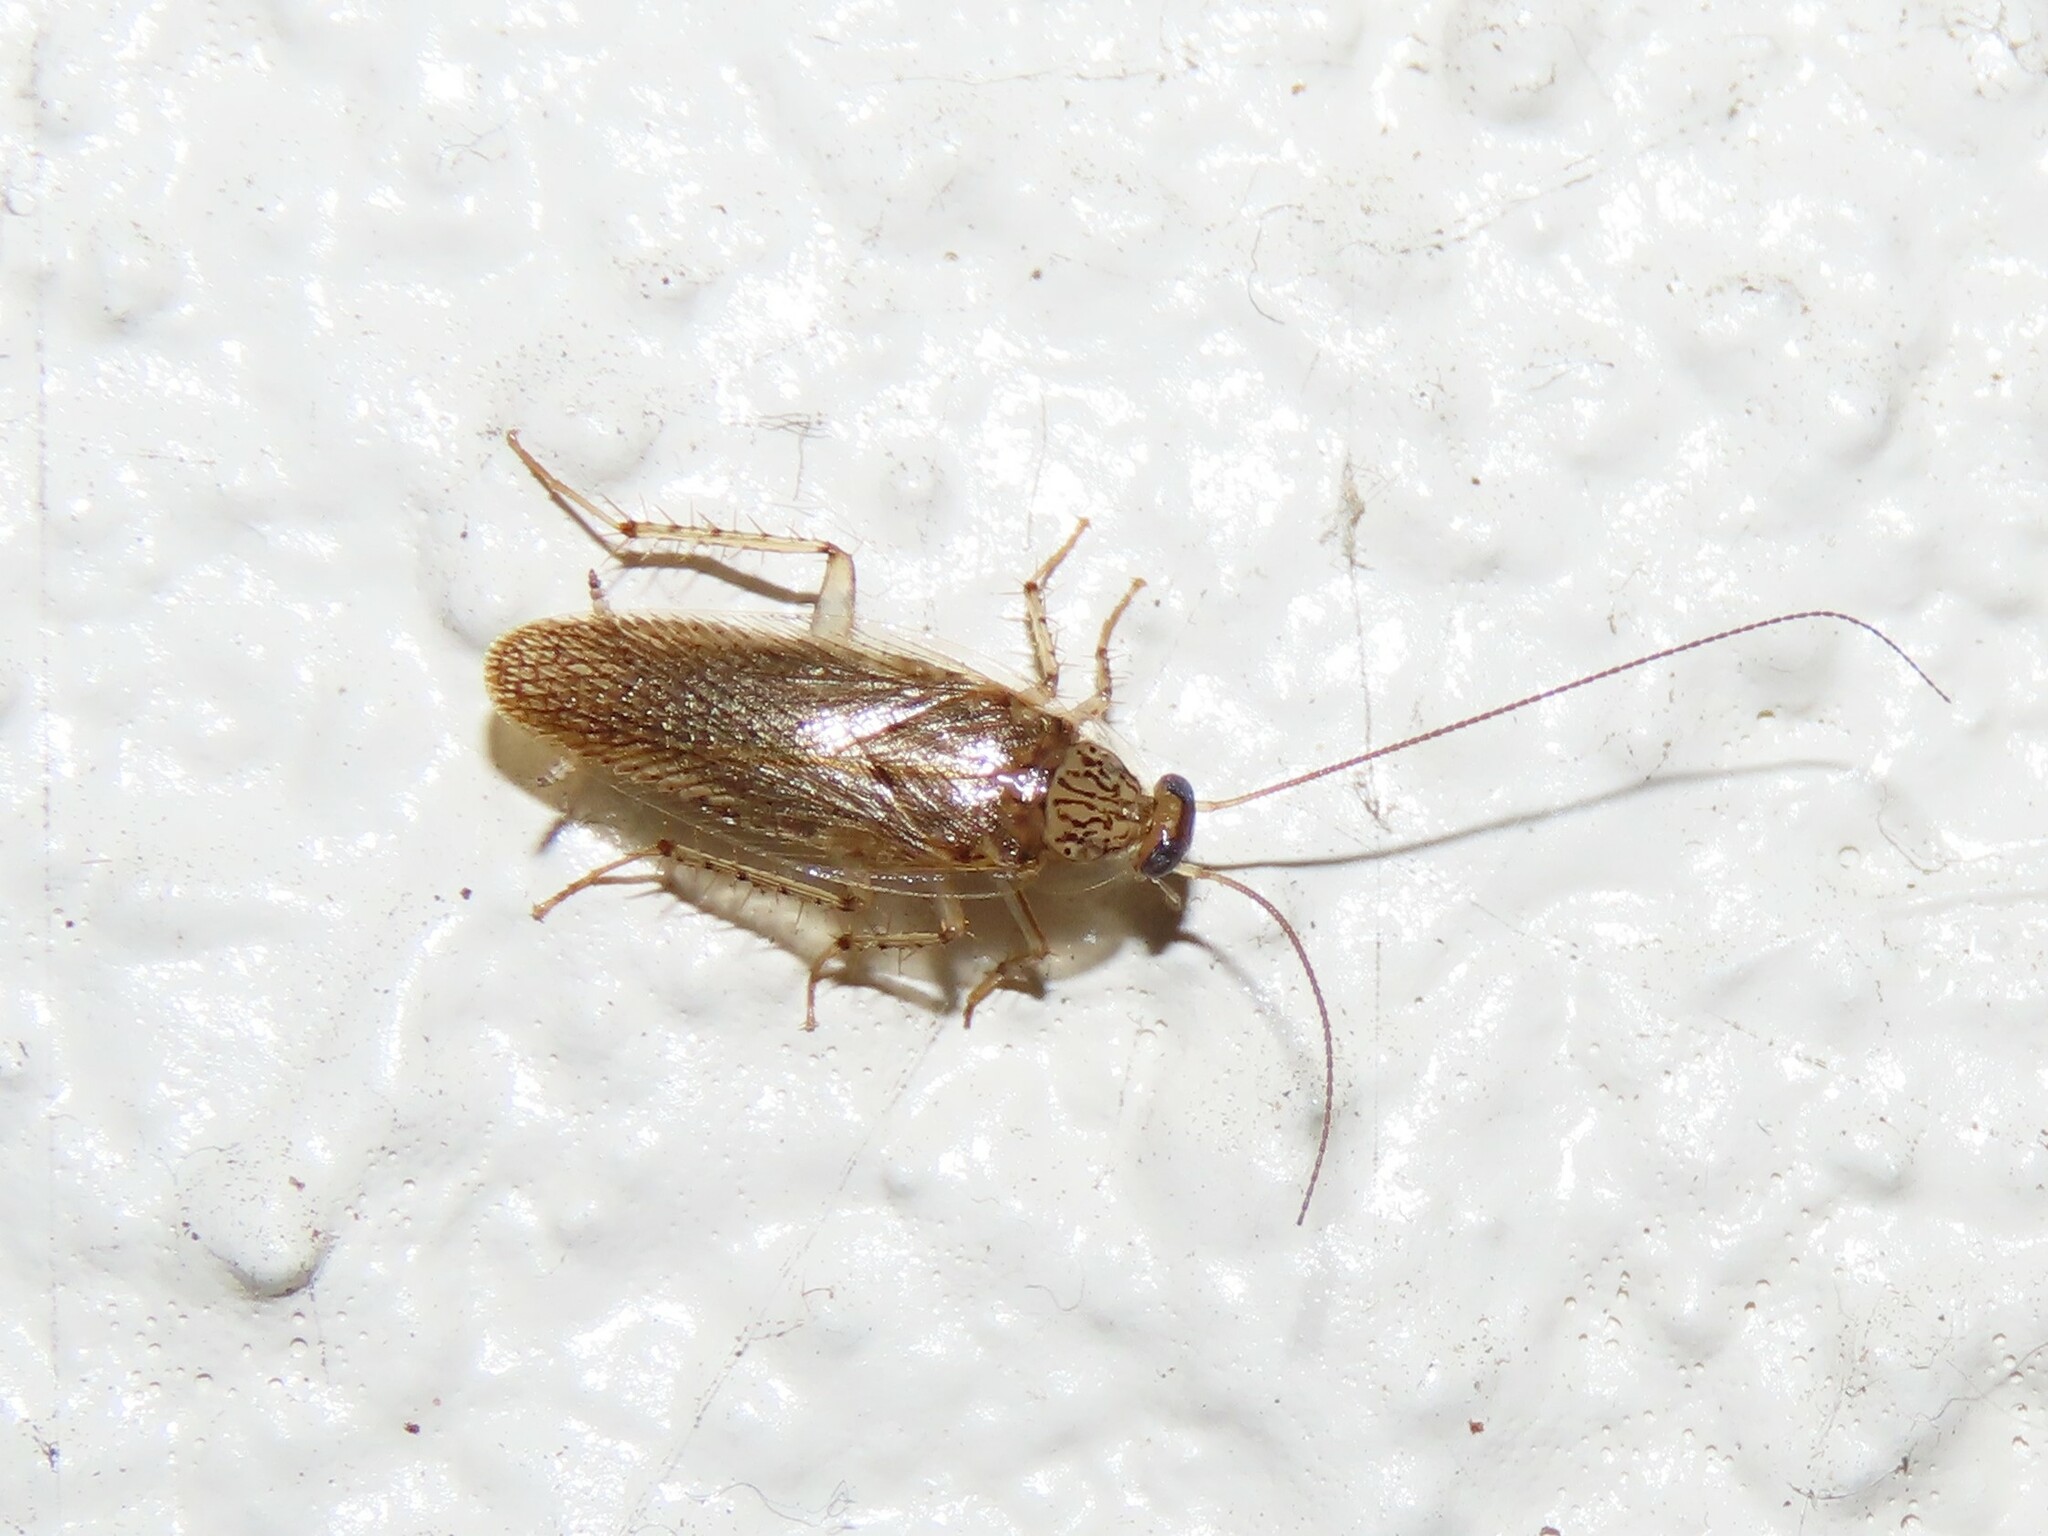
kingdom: Animalia
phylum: Arthropoda
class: Insecta
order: Blattodea
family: Ectobiidae
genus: Neoblattella
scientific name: Neoblattella detersa
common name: Wood cockroach
